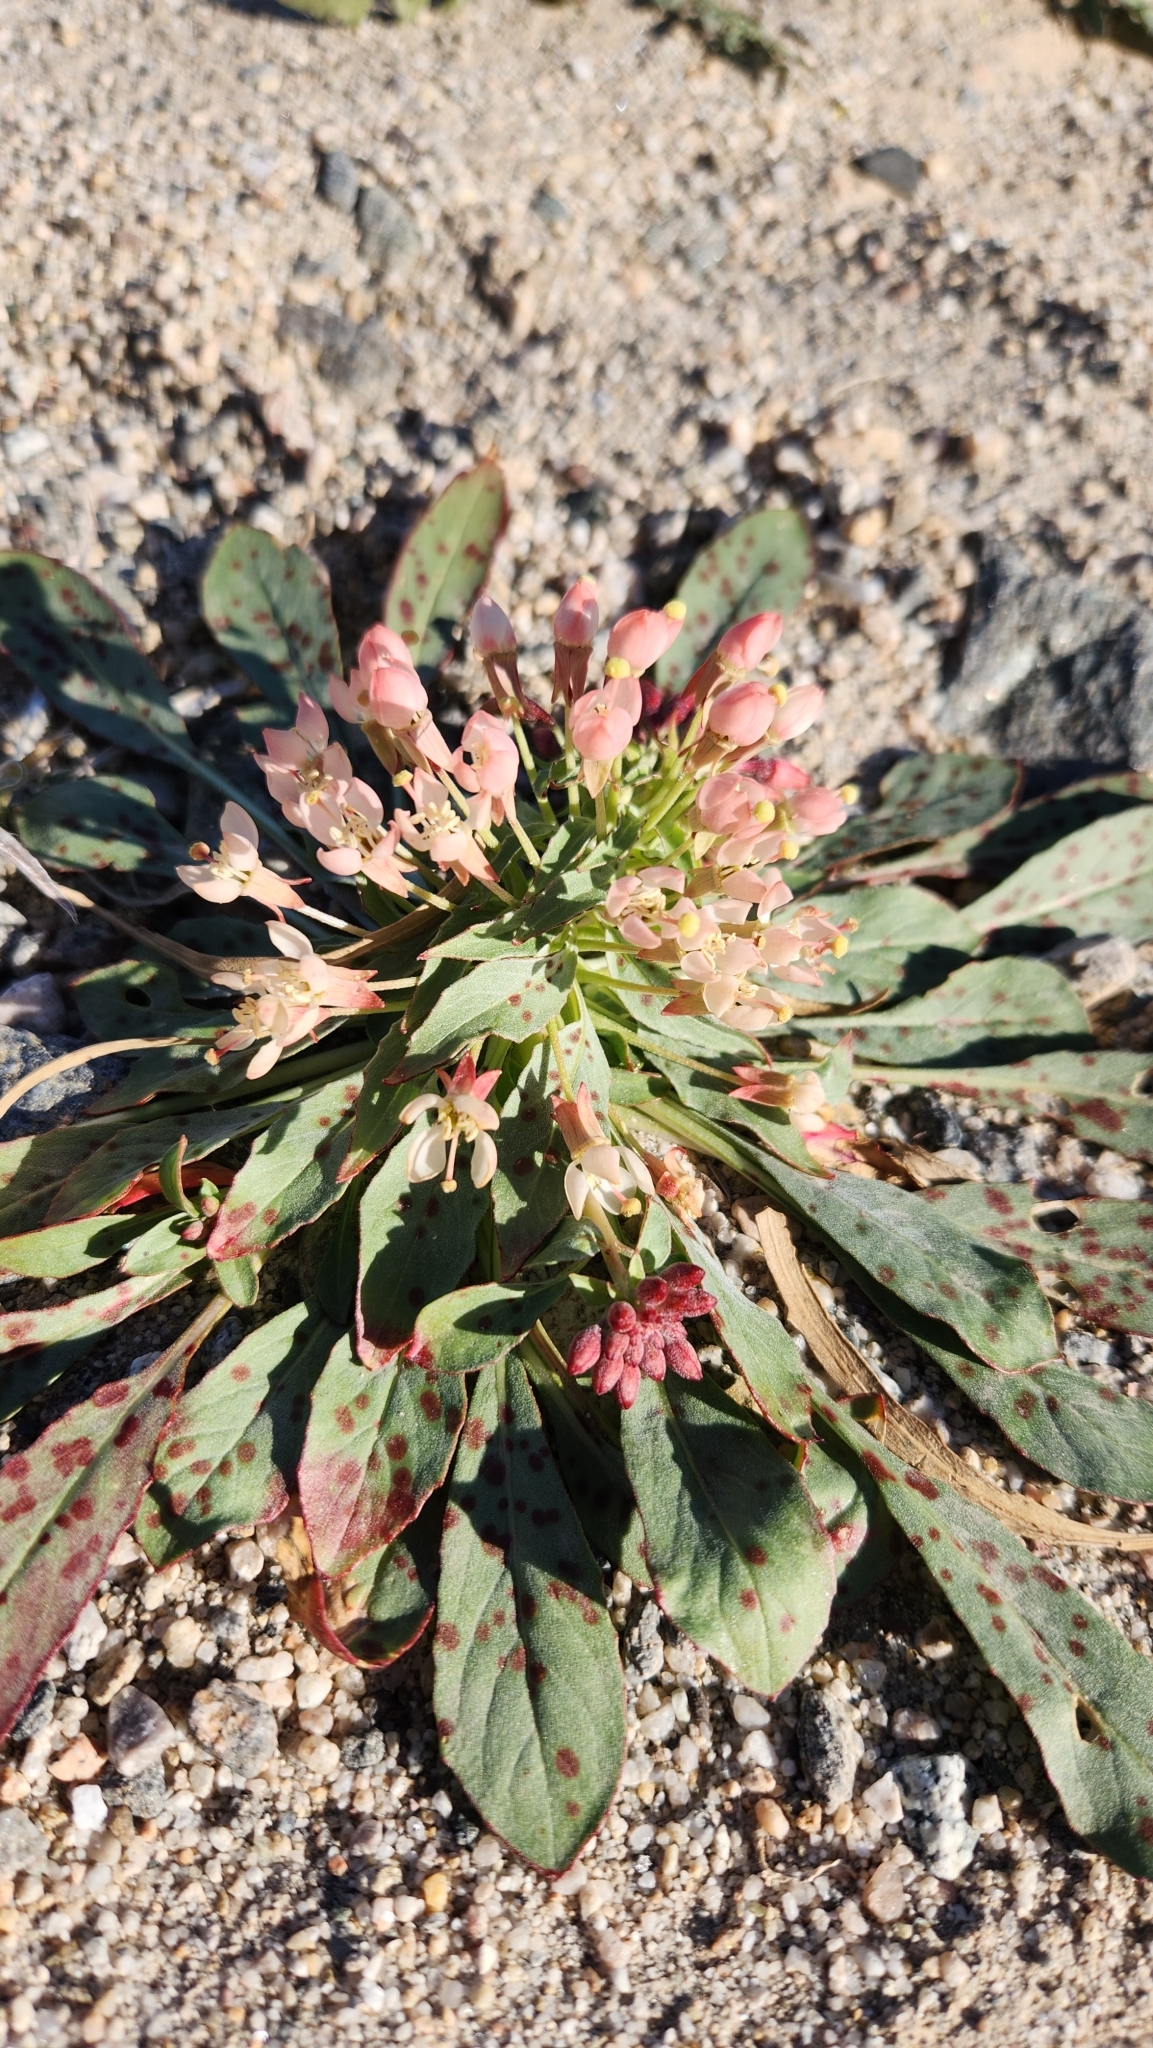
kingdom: Plantae
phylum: Tracheophyta
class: Magnoliopsida
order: Myrtales
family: Onagraceae
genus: Eremothera
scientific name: Eremothera boothii
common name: Booth's evening primrose
